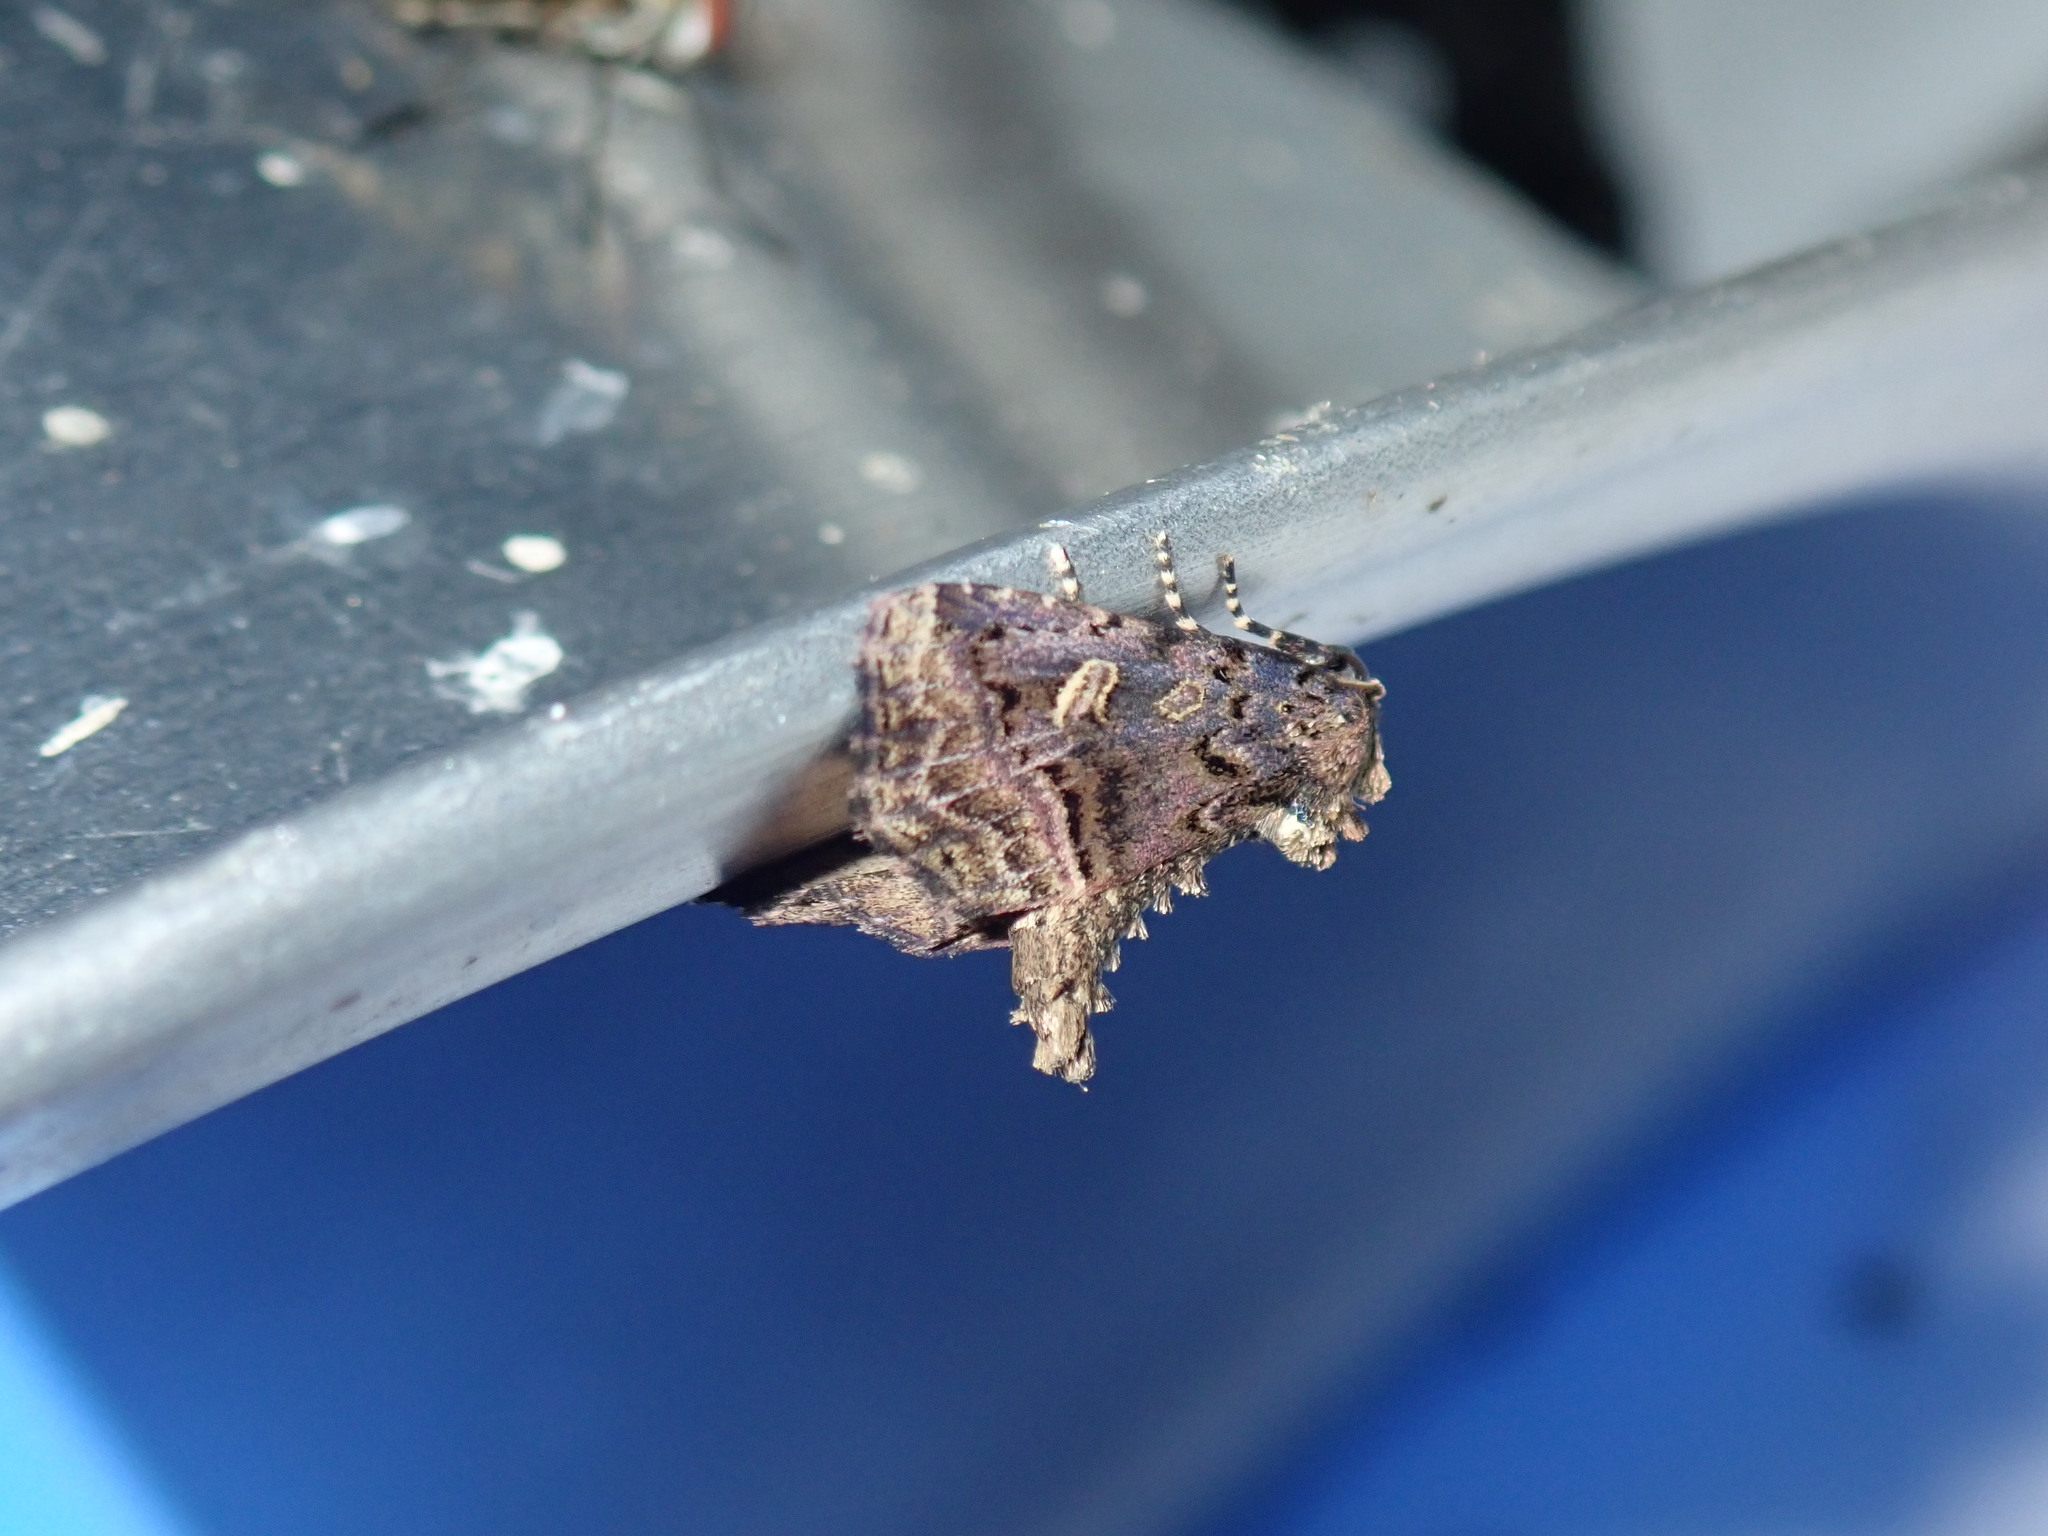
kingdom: Animalia
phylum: Arthropoda
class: Insecta
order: Lepidoptera
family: Noctuidae
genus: Homophoberia
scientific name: Homophoberia cristata
